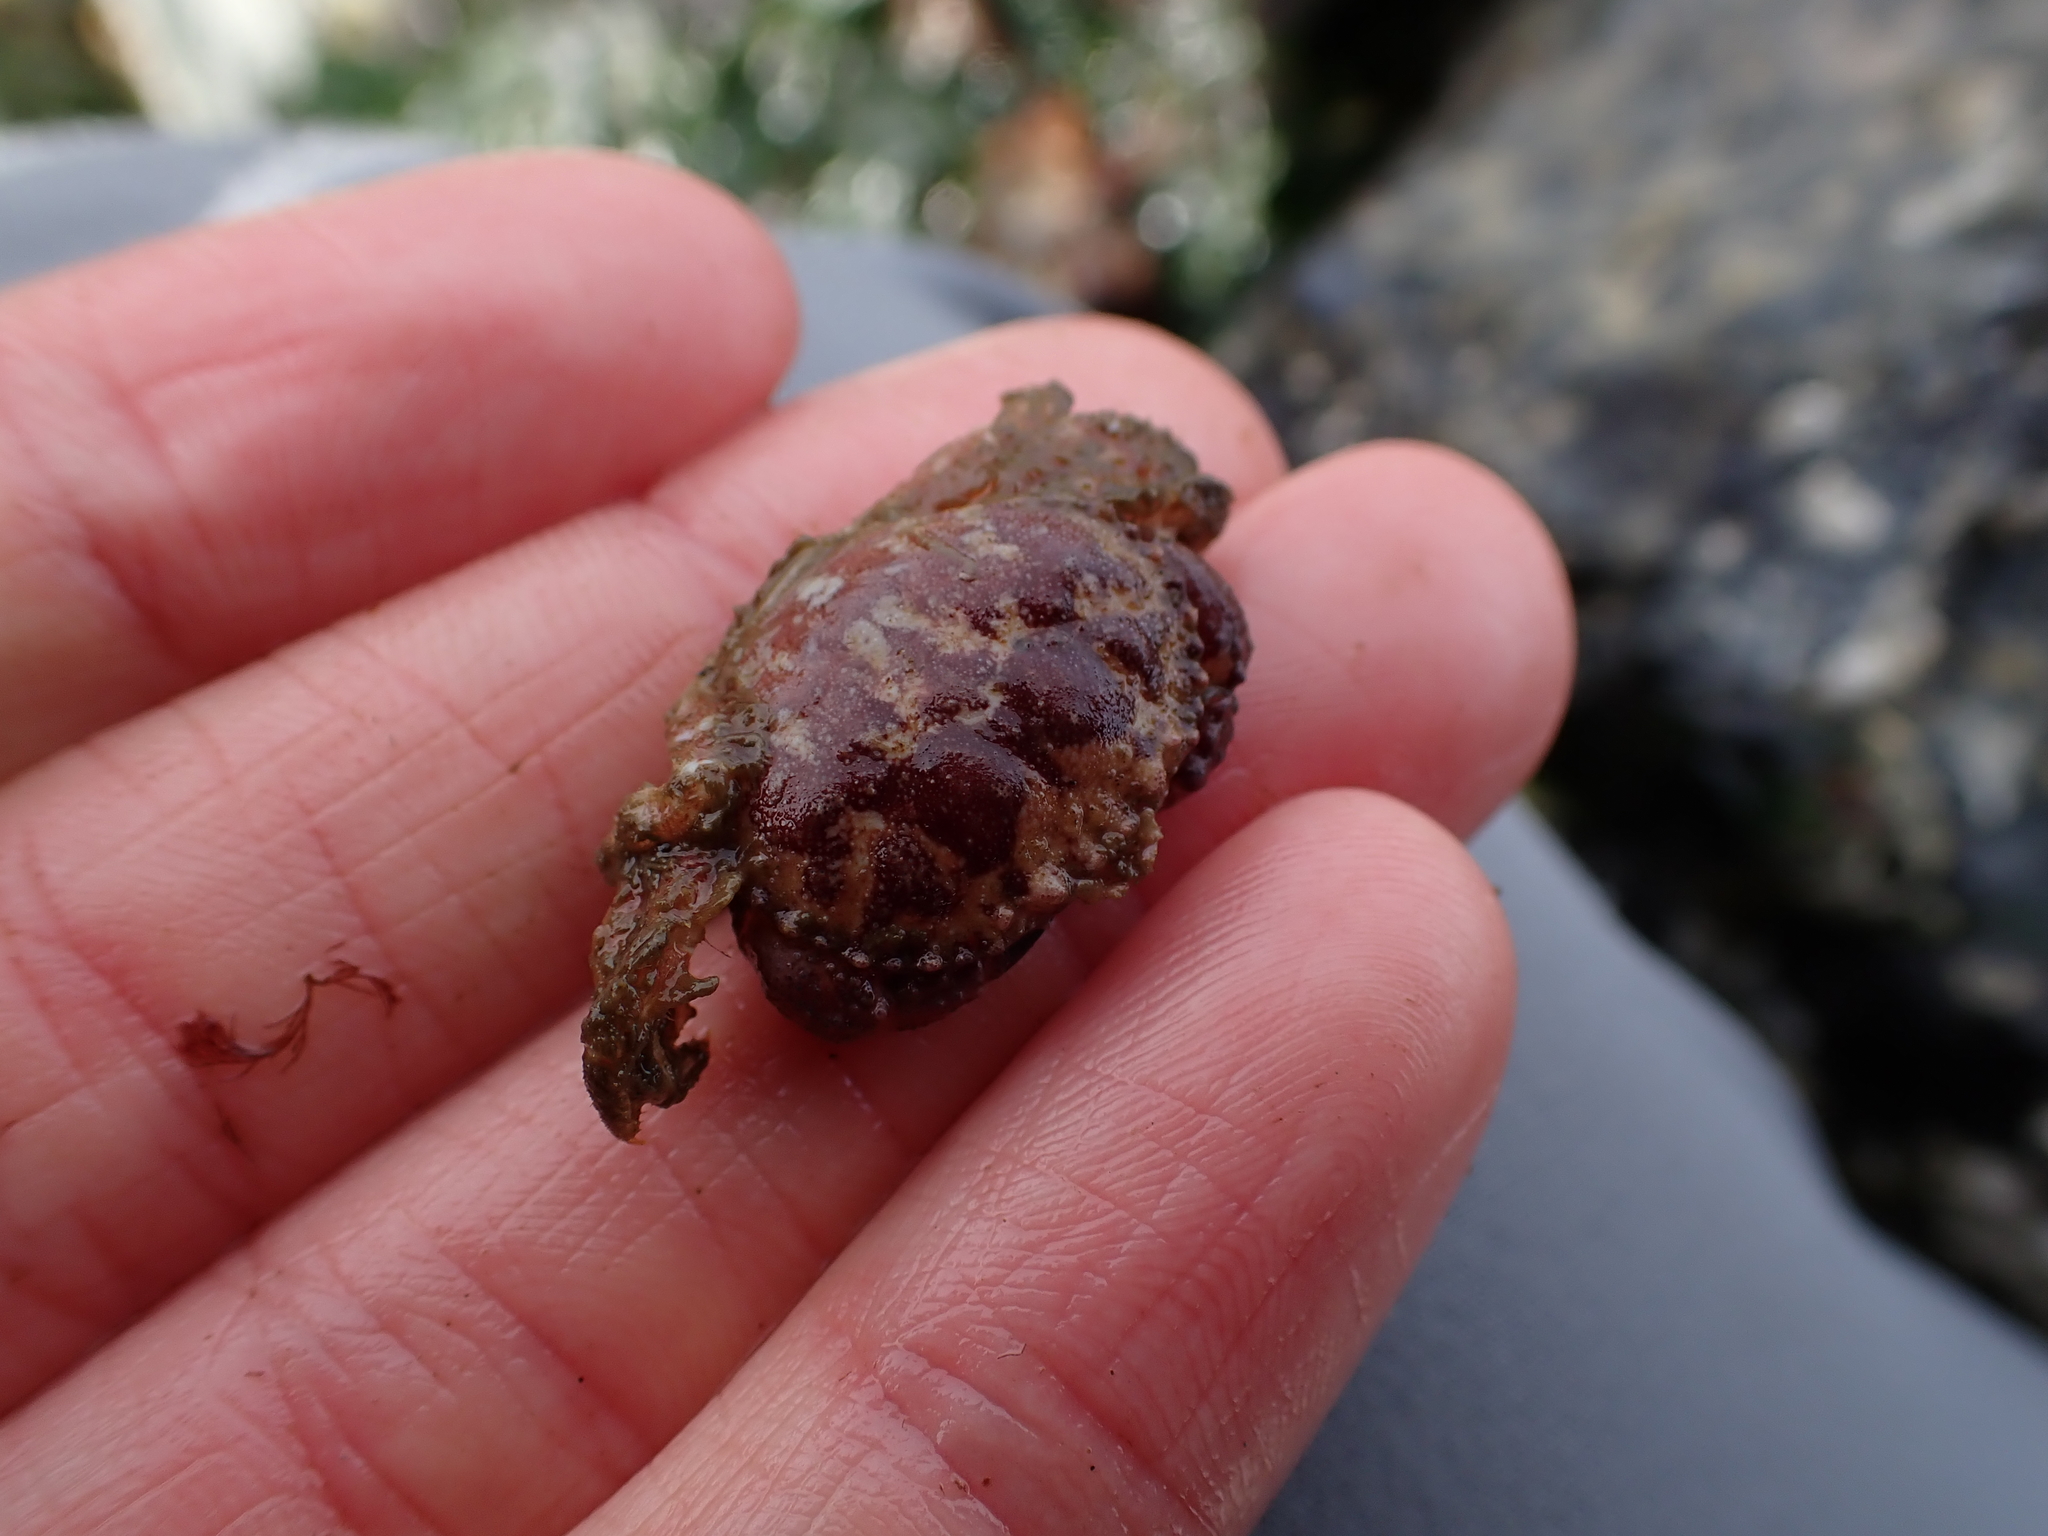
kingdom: Animalia
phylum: Arthropoda
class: Malacostraca
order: Decapoda
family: Cancridae
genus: Glebocarcinus
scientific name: Glebocarcinus oregonensis
